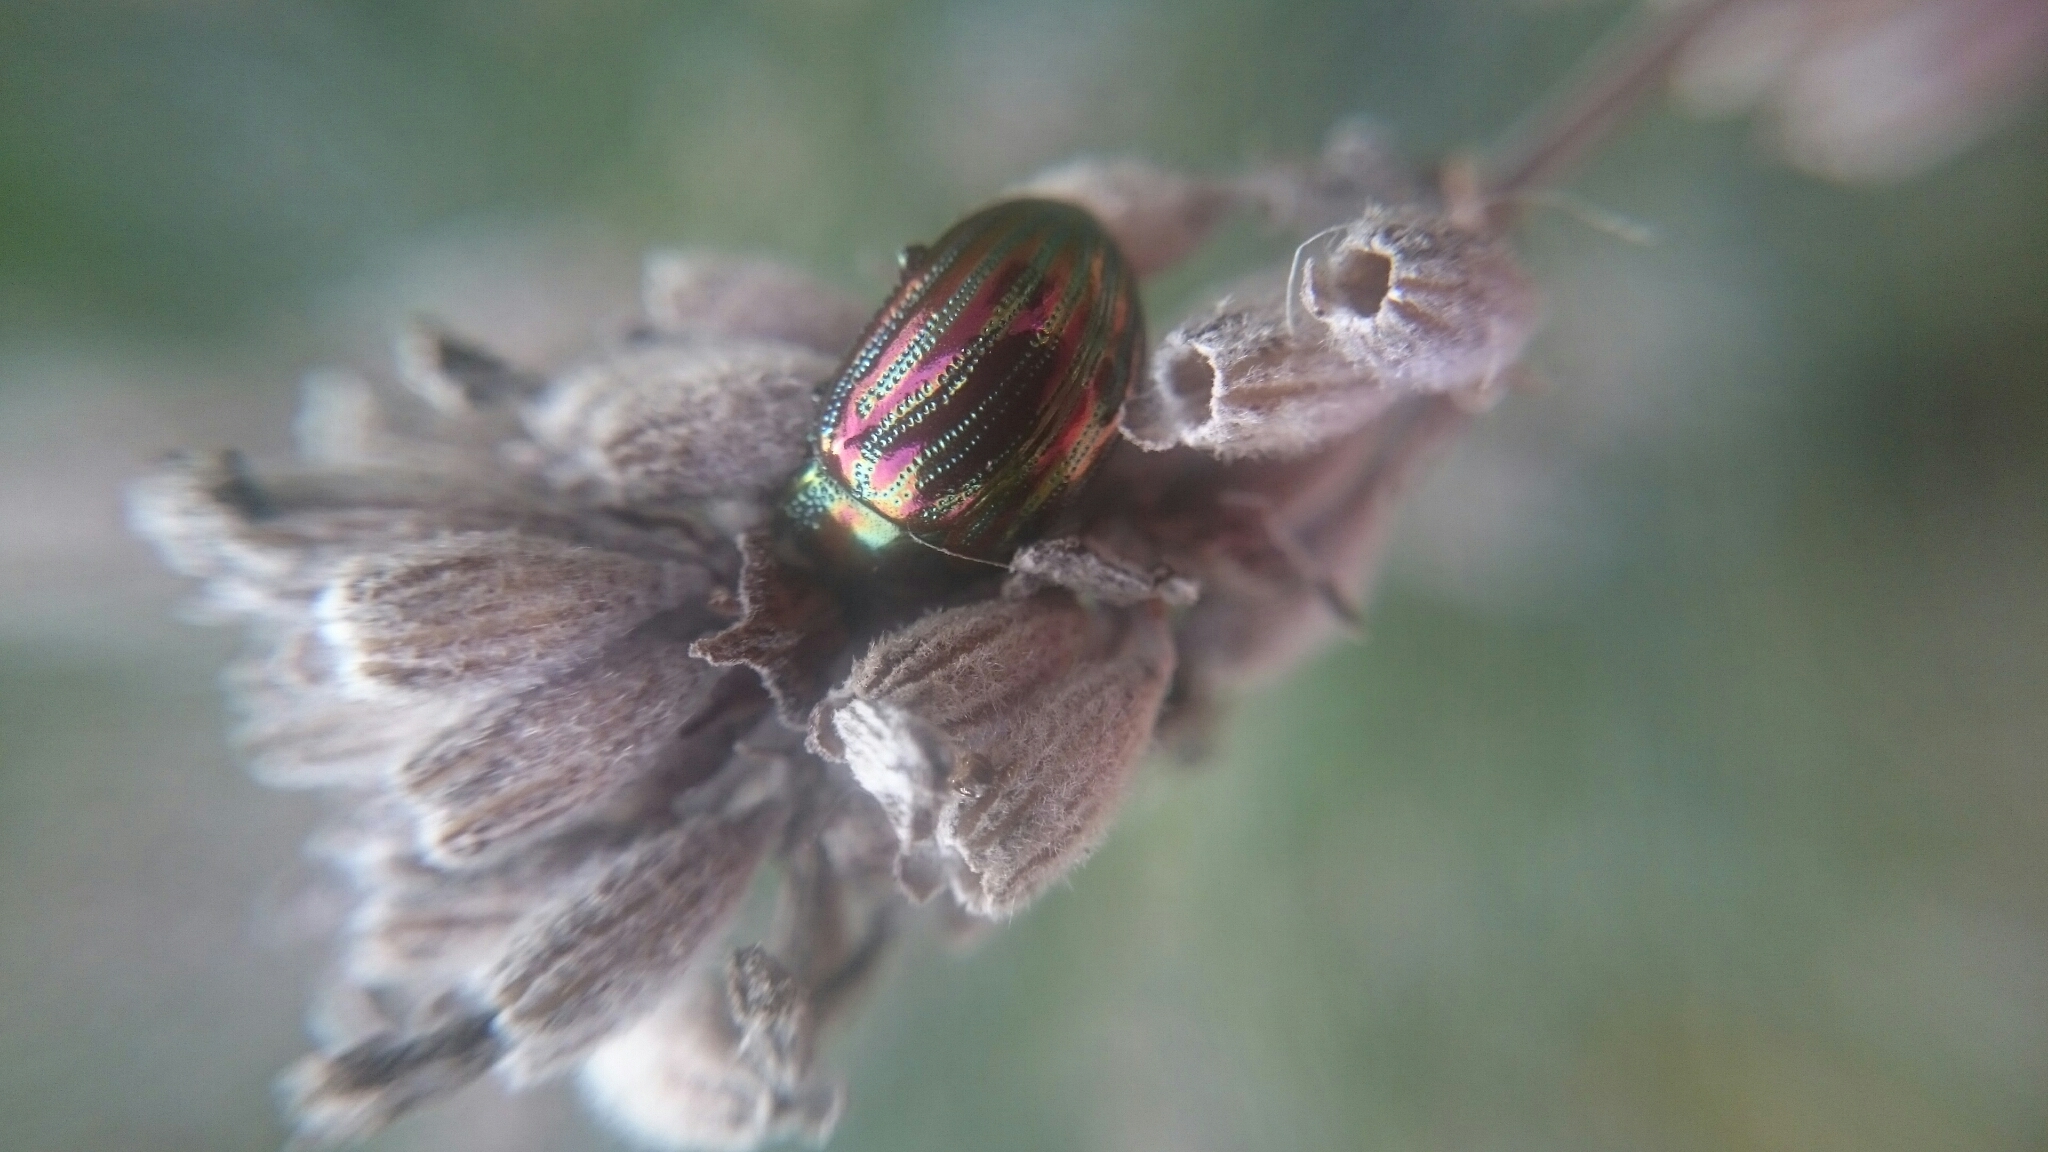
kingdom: Animalia
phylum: Arthropoda
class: Insecta
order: Coleoptera
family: Chrysomelidae
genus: Chrysolina
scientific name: Chrysolina americana
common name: Rosemary beetle
